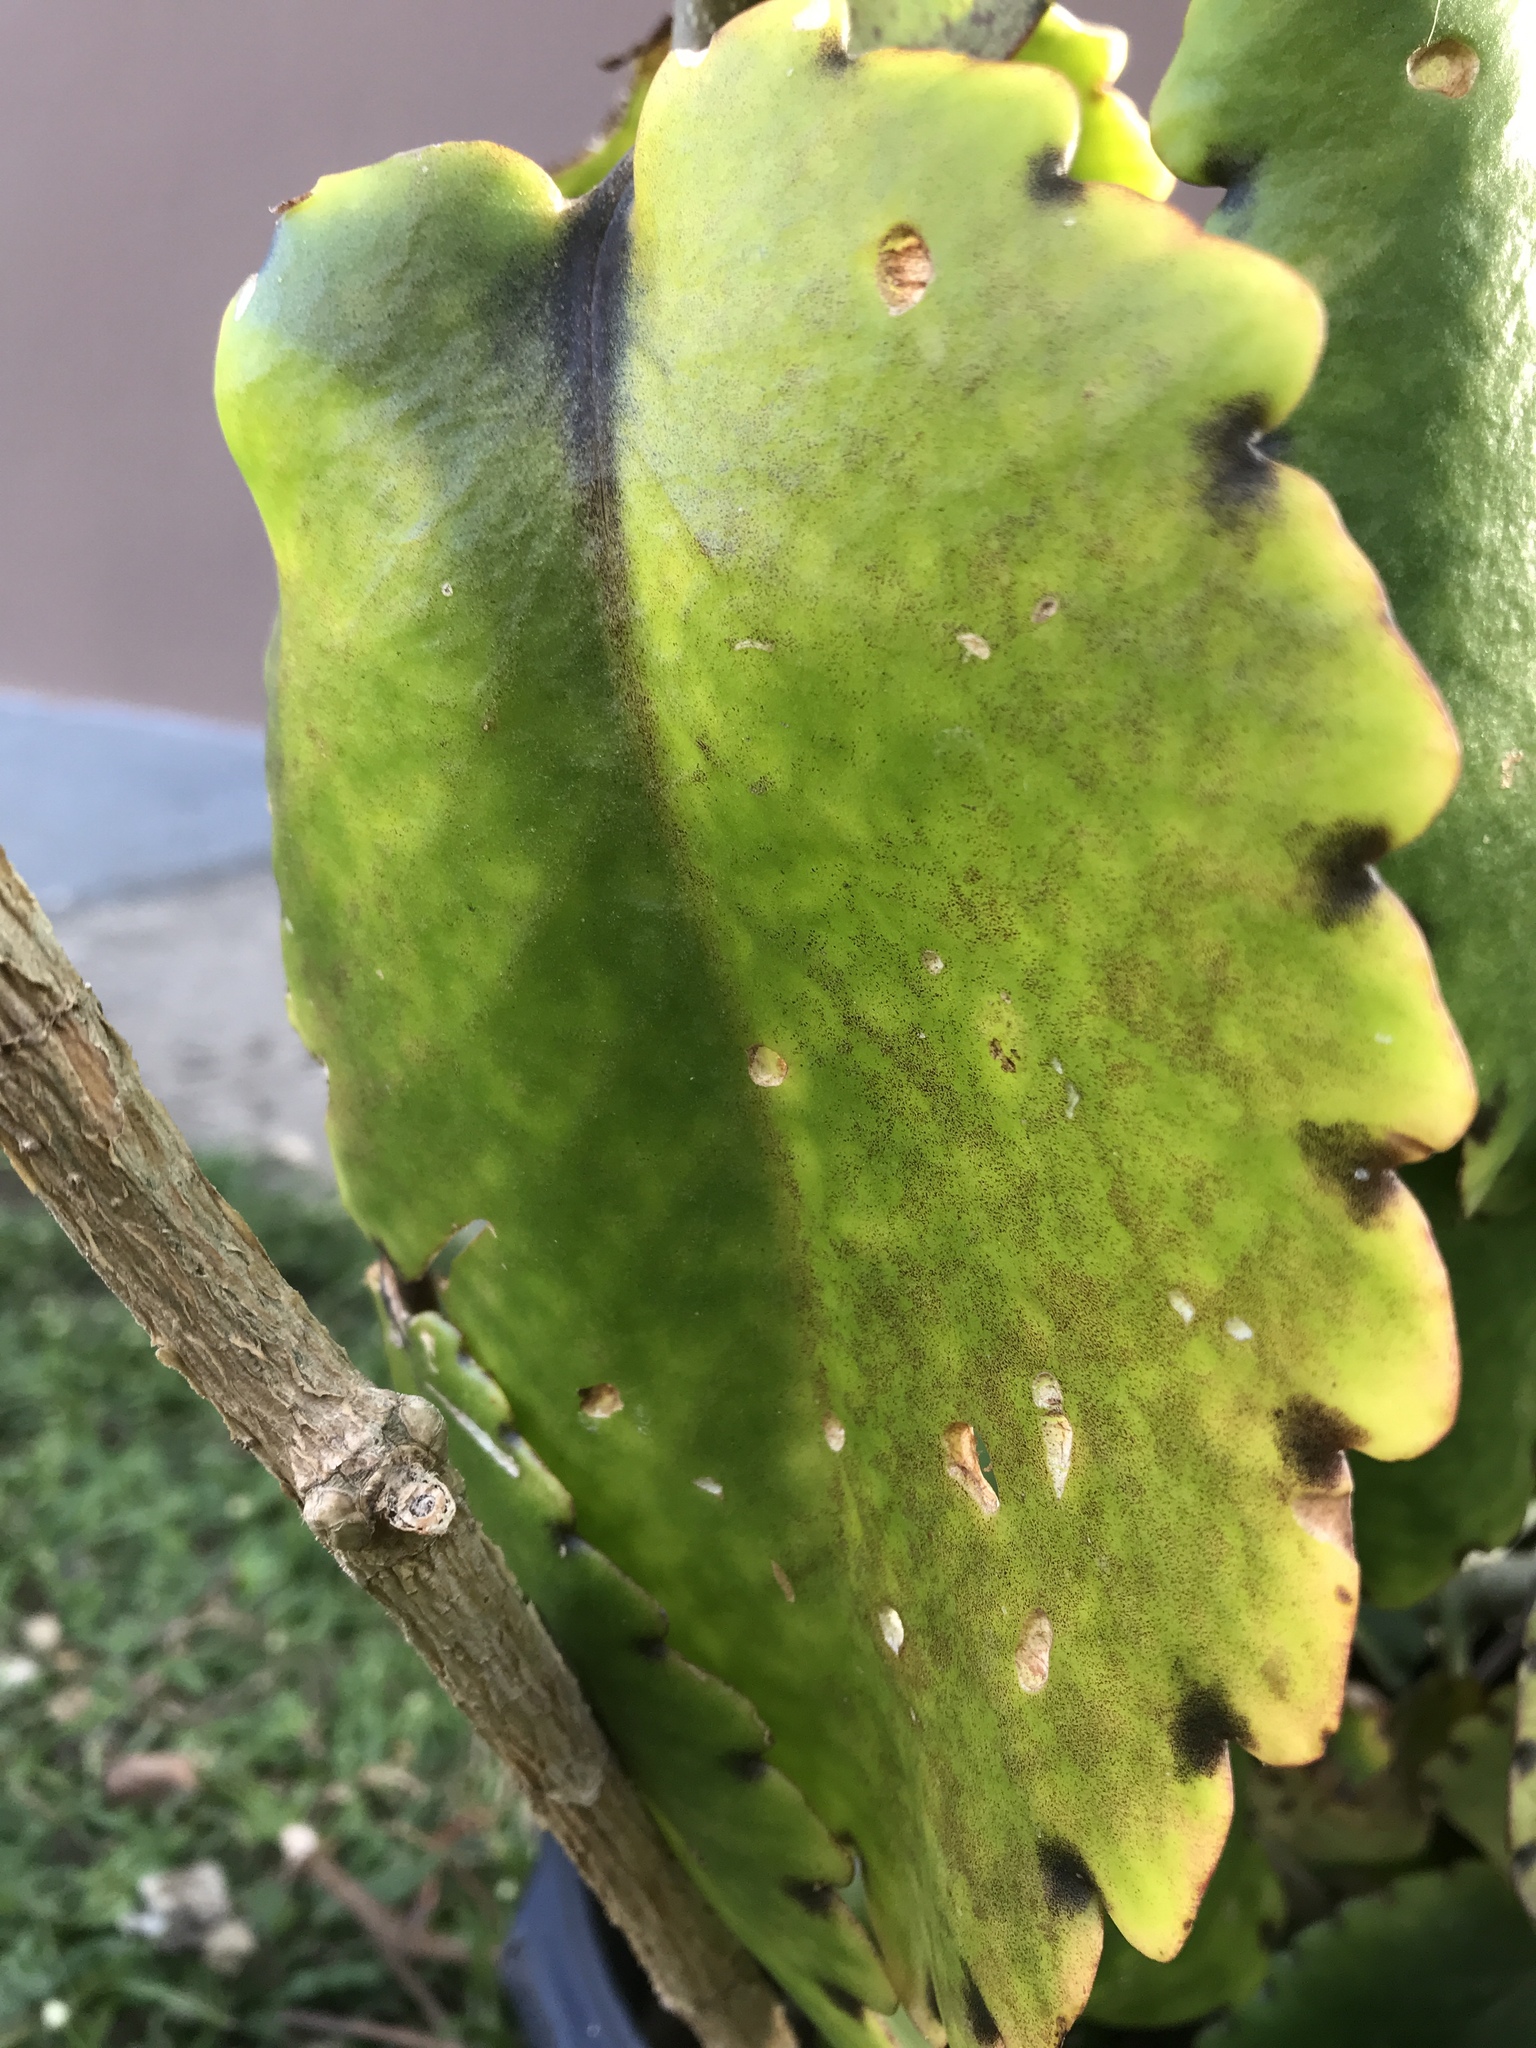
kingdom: Plantae
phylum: Tracheophyta
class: Magnoliopsida
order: Saxifragales
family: Crassulaceae
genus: Kalanchoe
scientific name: Kalanchoe pinnata
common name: Cathedral bells
